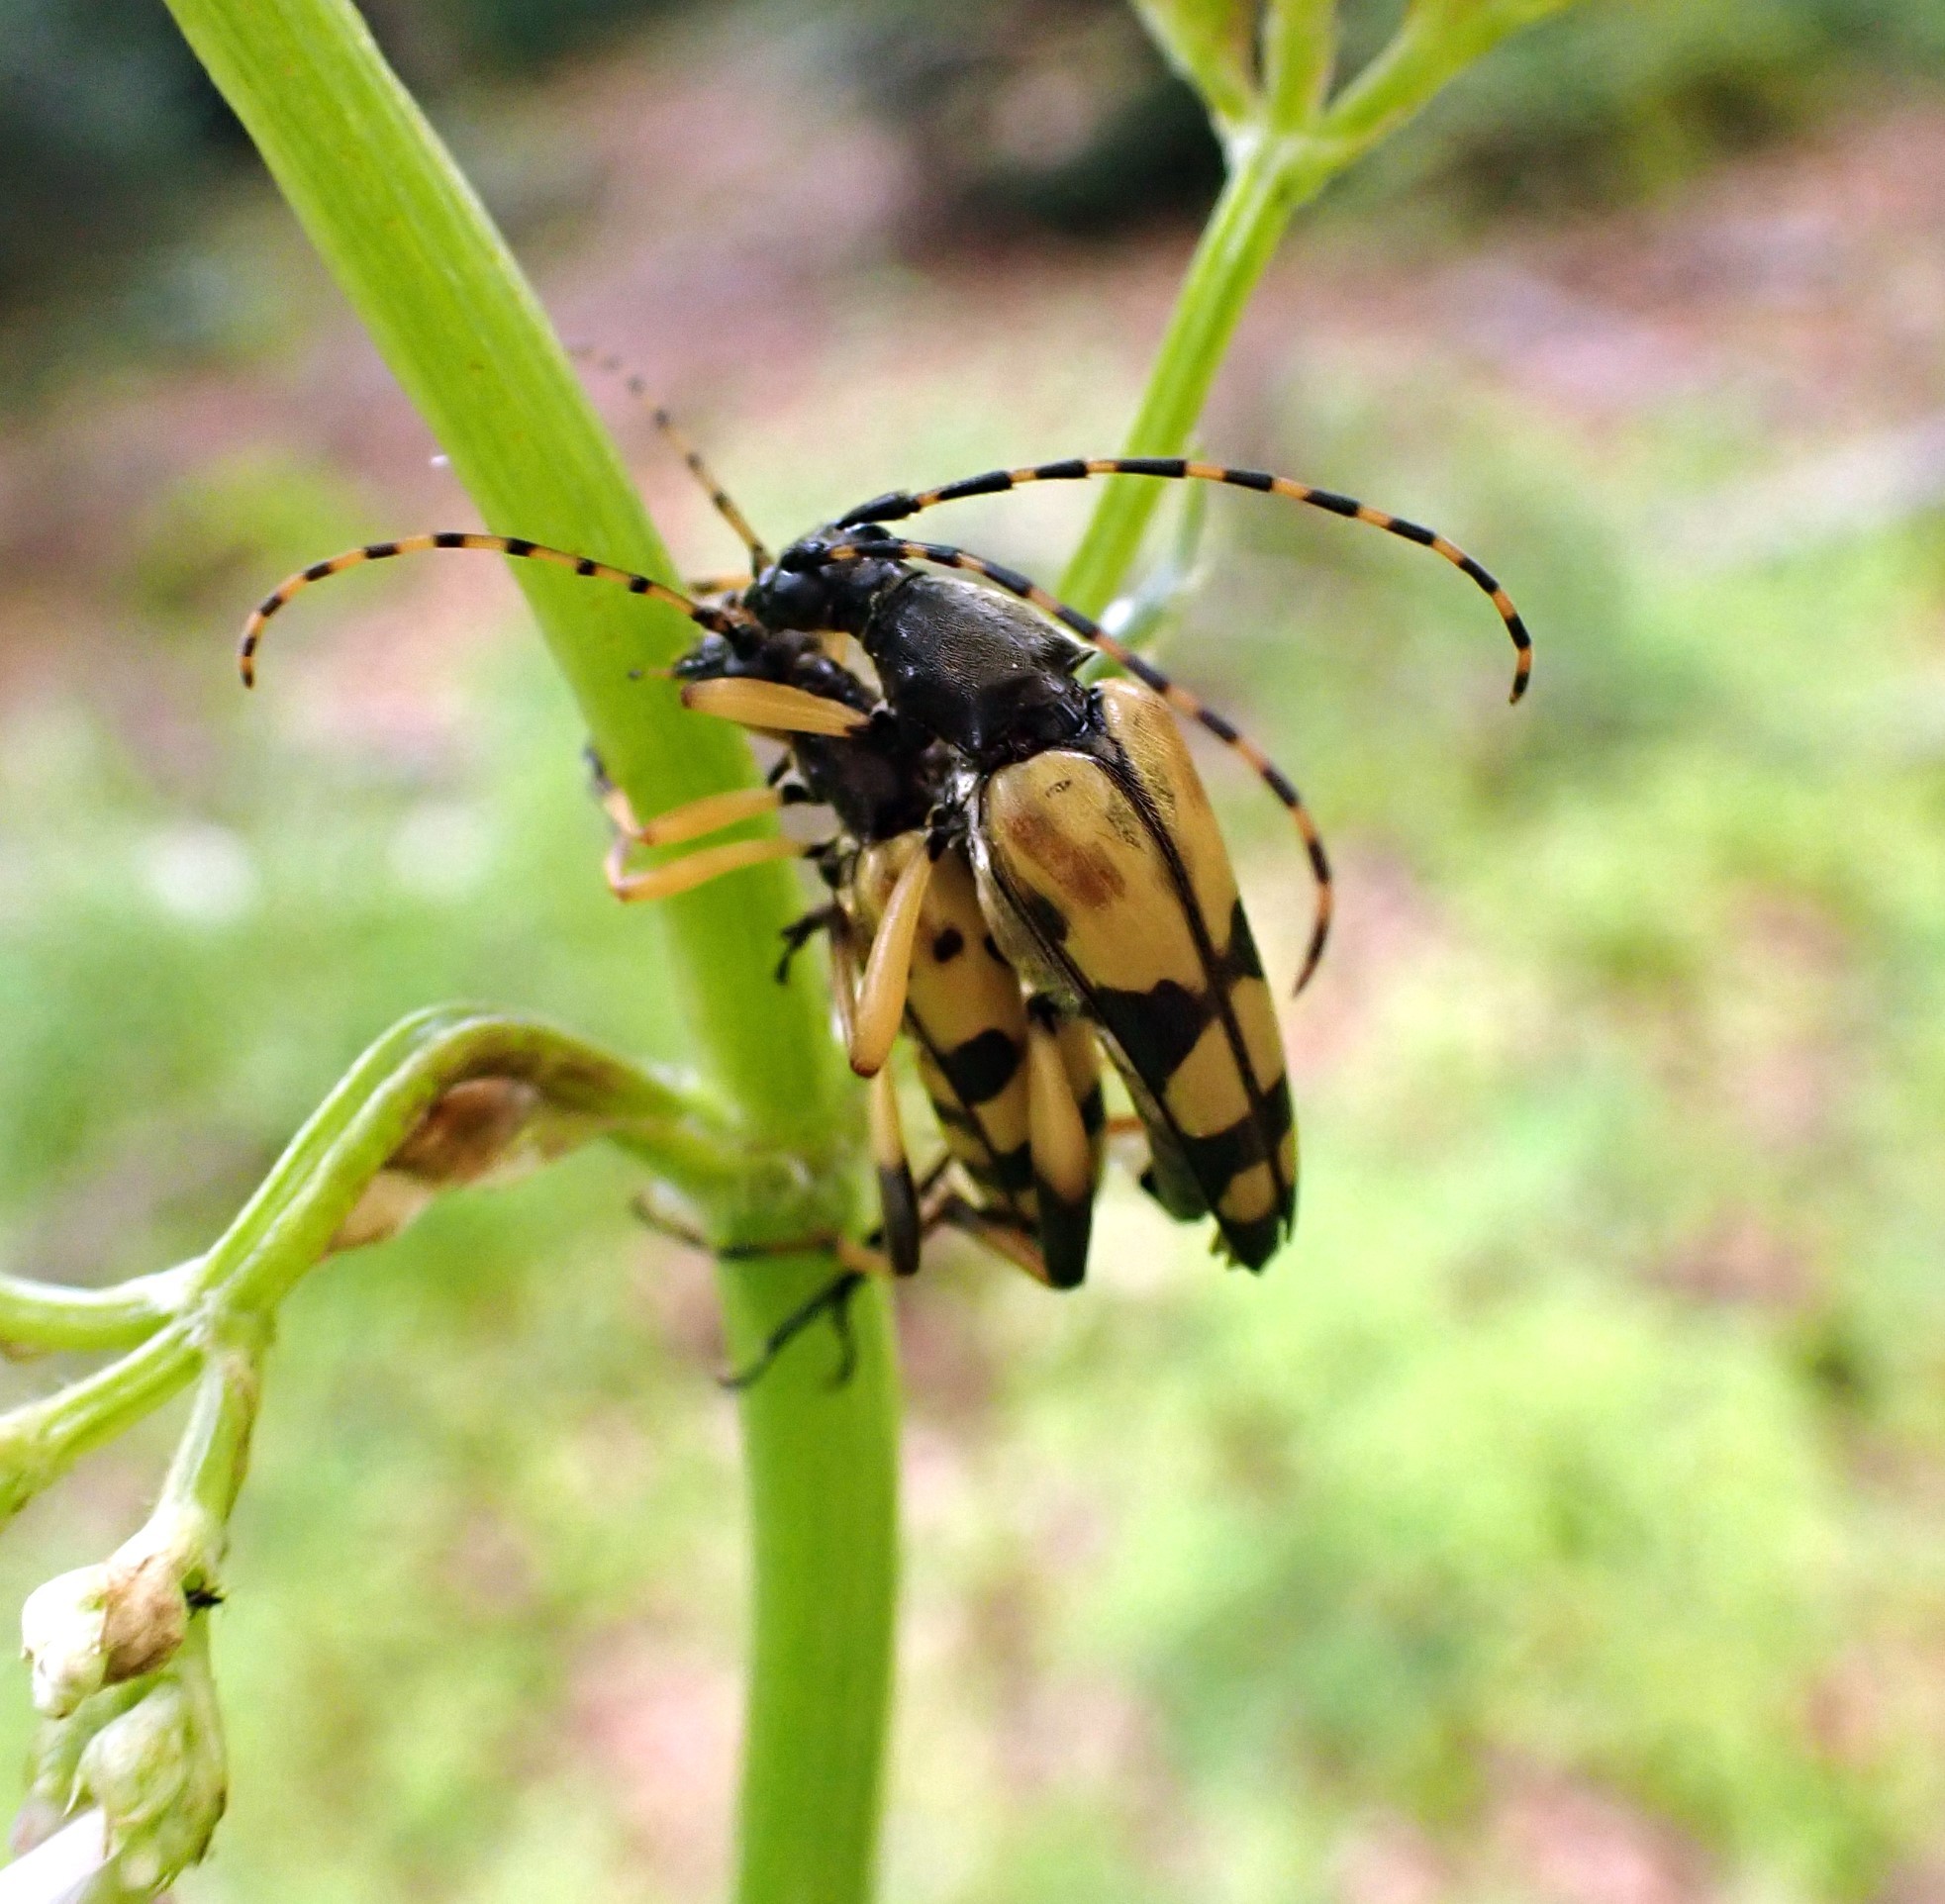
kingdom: Animalia
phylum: Arthropoda
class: Insecta
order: Coleoptera
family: Cerambycidae
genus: Rutpela
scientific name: Rutpela maculata
